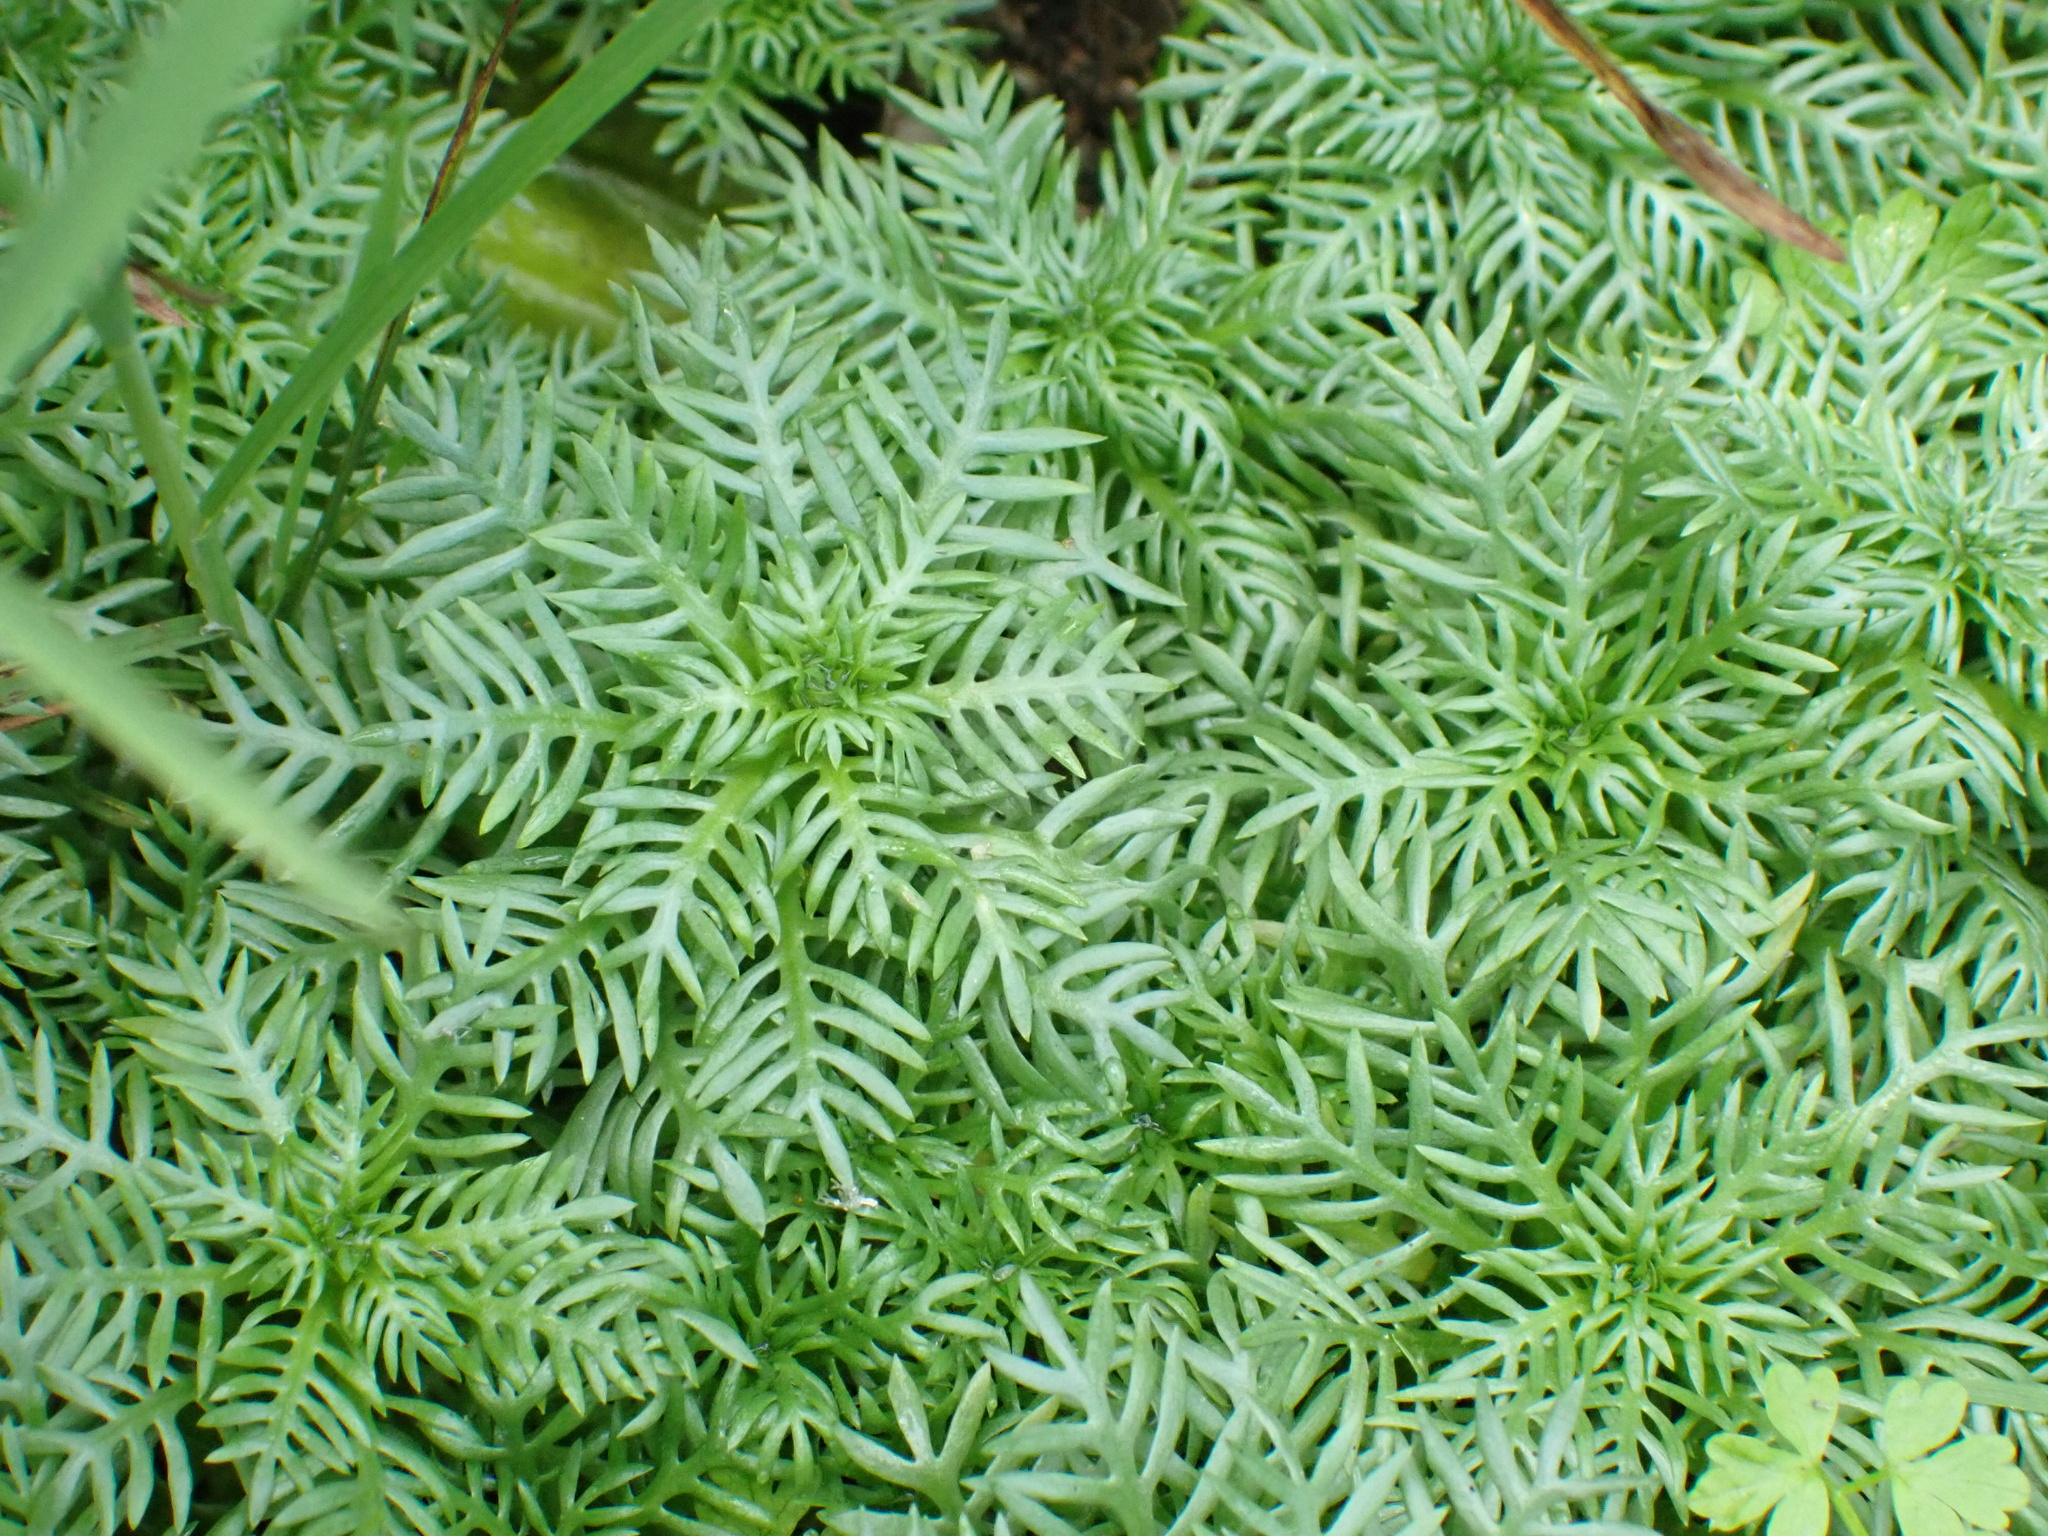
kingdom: Plantae
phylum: Tracheophyta
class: Magnoliopsida
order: Ericales
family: Primulaceae
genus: Hottonia
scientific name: Hottonia palustris
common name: Water-violet
